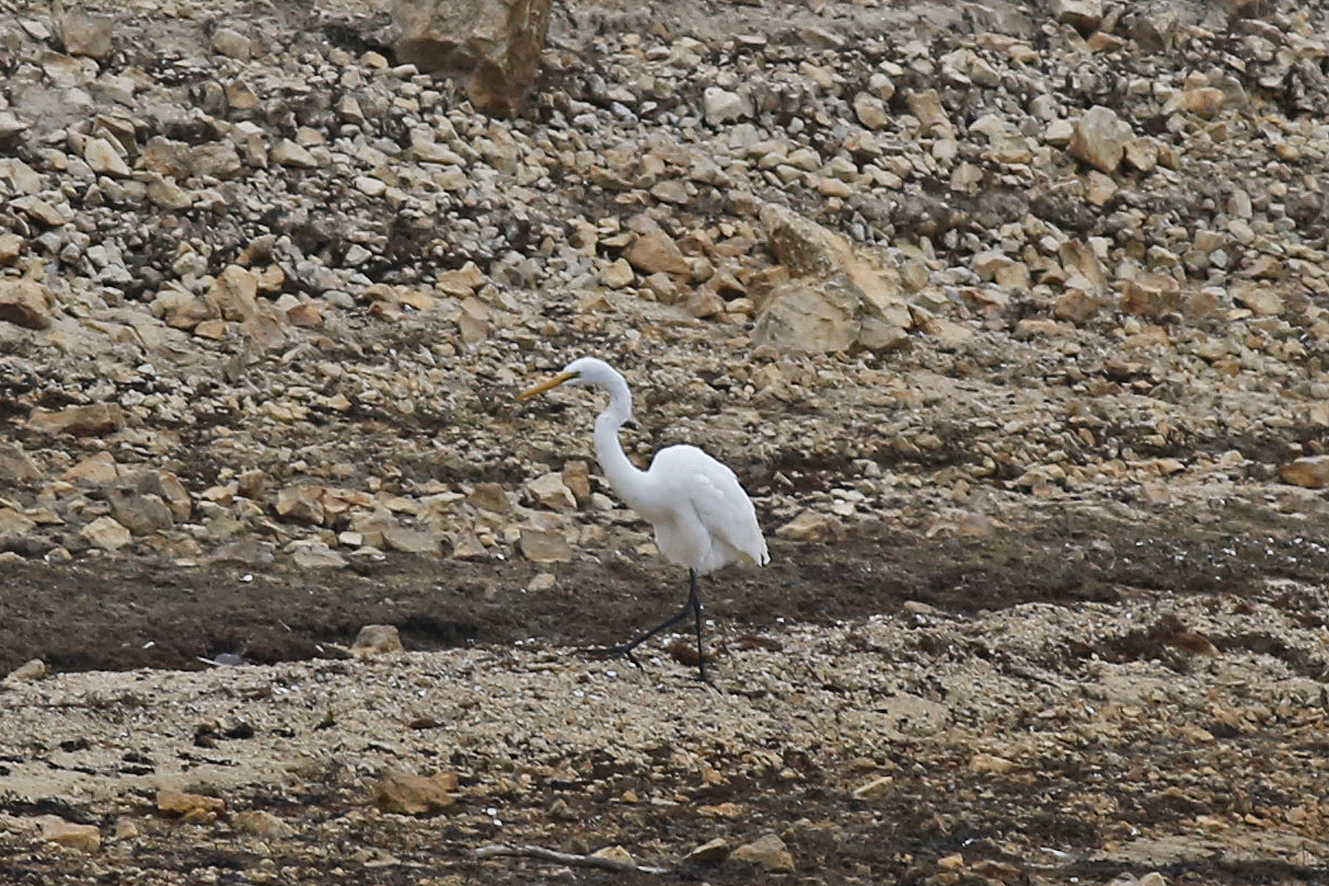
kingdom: Animalia
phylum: Chordata
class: Aves
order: Pelecaniformes
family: Ardeidae
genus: Ardea
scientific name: Ardea alba
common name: Great egret
